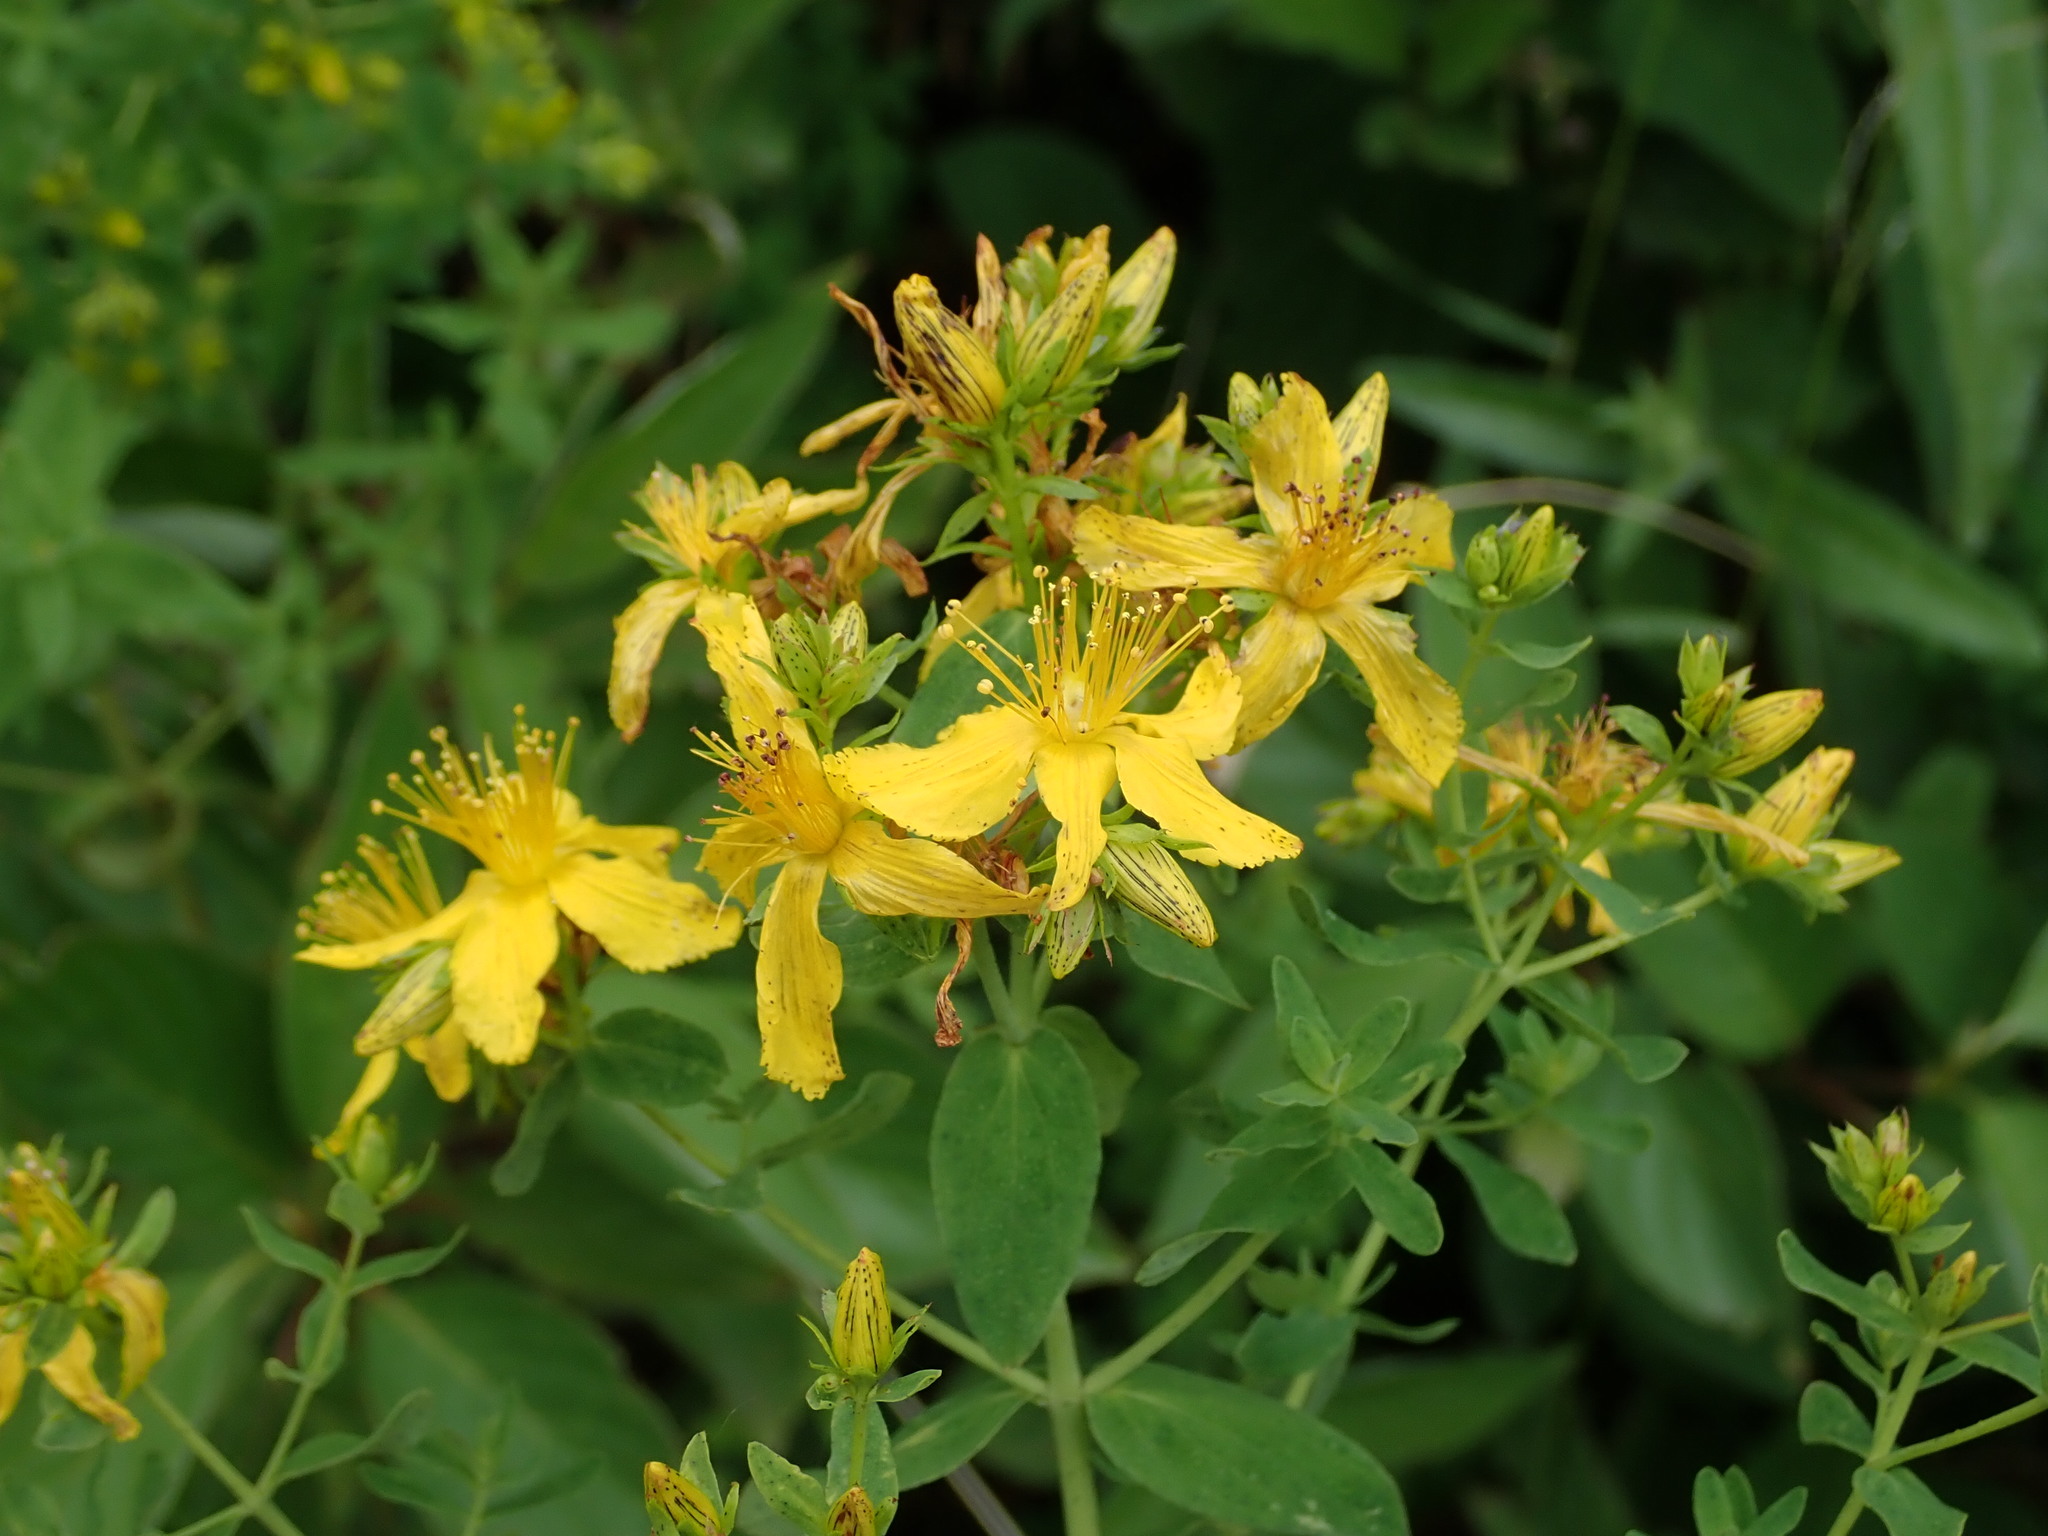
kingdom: Plantae
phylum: Tracheophyta
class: Magnoliopsida
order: Malpighiales
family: Hypericaceae
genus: Hypericum
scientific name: Hypericum perforatum
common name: Common st. johnswort
